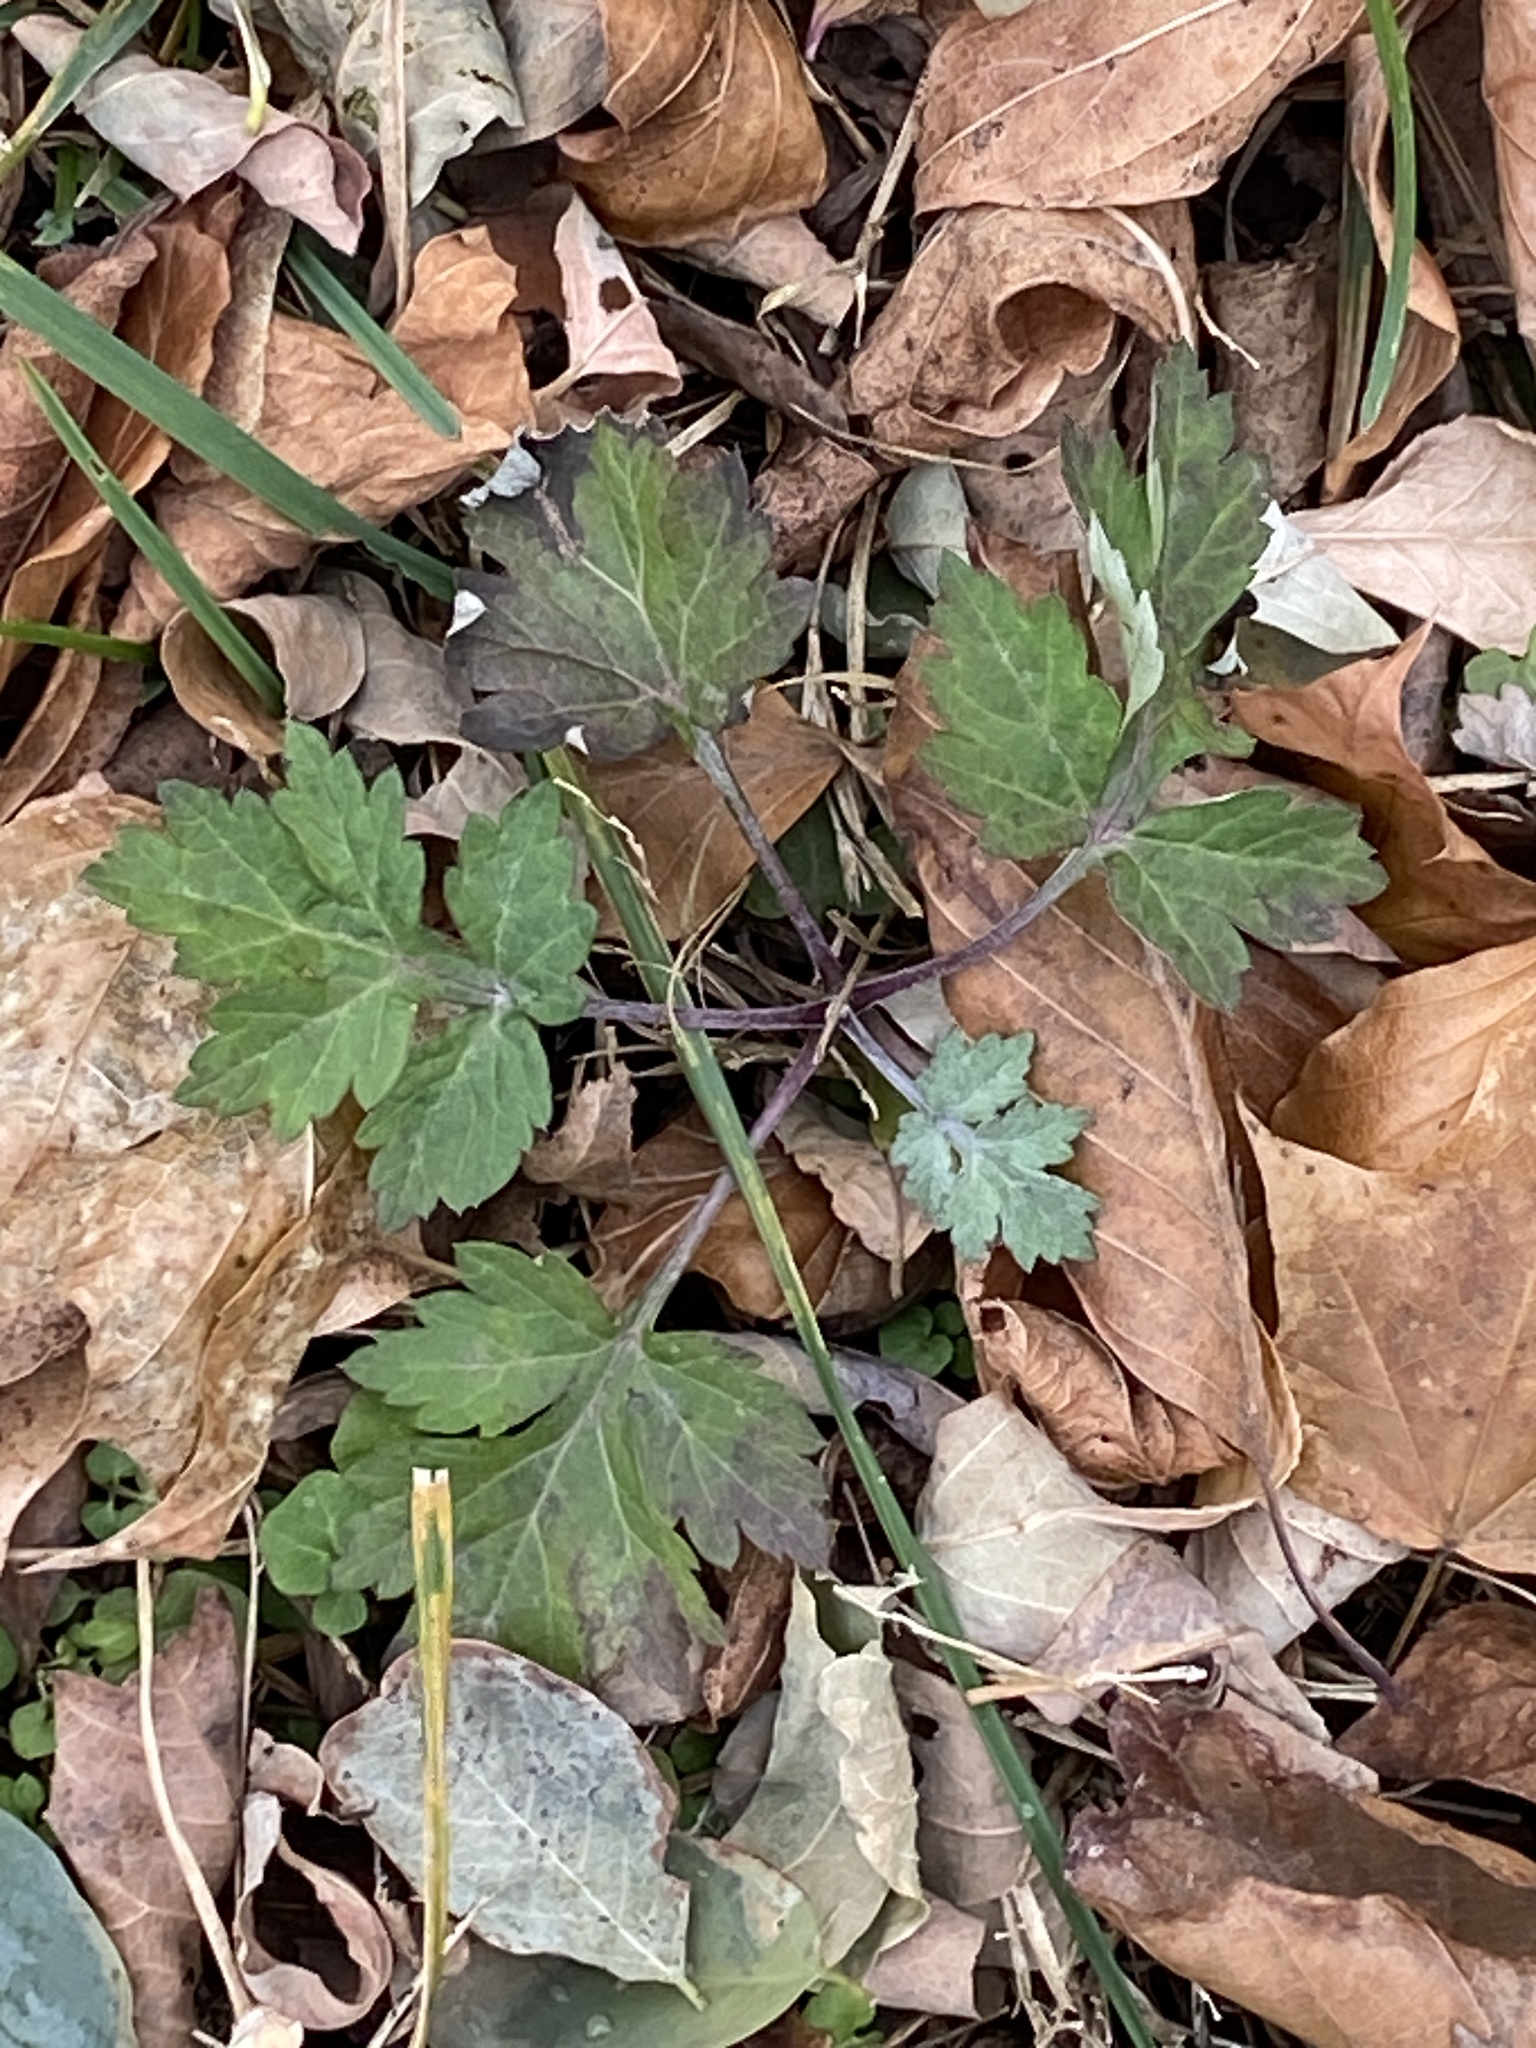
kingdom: Plantae
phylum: Tracheophyta
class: Magnoliopsida
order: Asterales
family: Asteraceae
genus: Artemisia
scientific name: Artemisia vulgaris
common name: Mugwort
